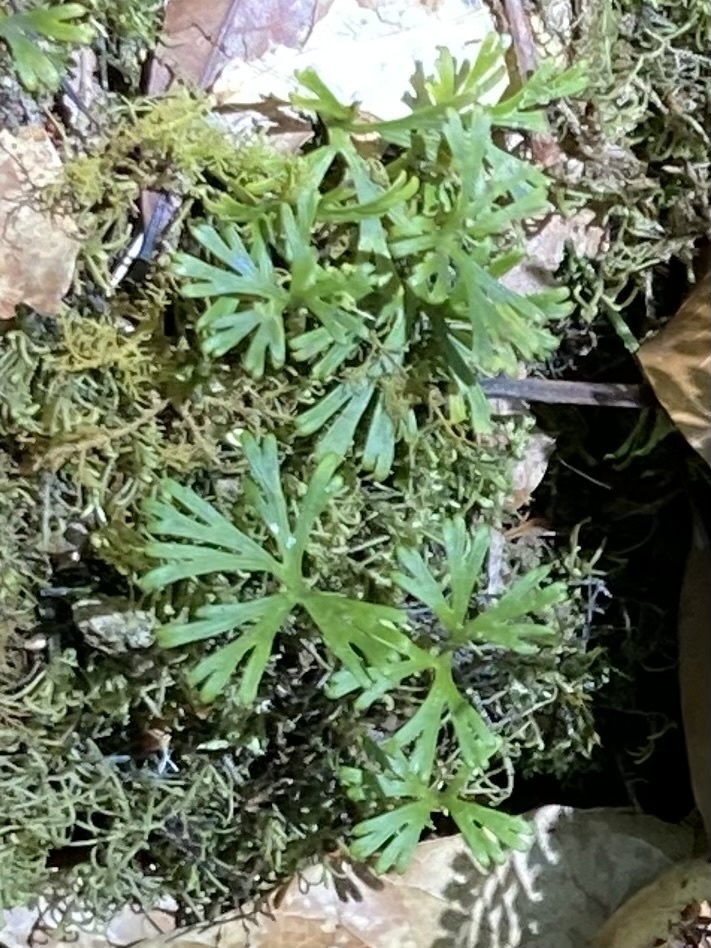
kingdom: Plantae
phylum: Tracheophyta
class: Polypodiopsida
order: Polypodiales
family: Dryopteridaceae
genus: Elaphoglossum
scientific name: Elaphoglossum peltatum
